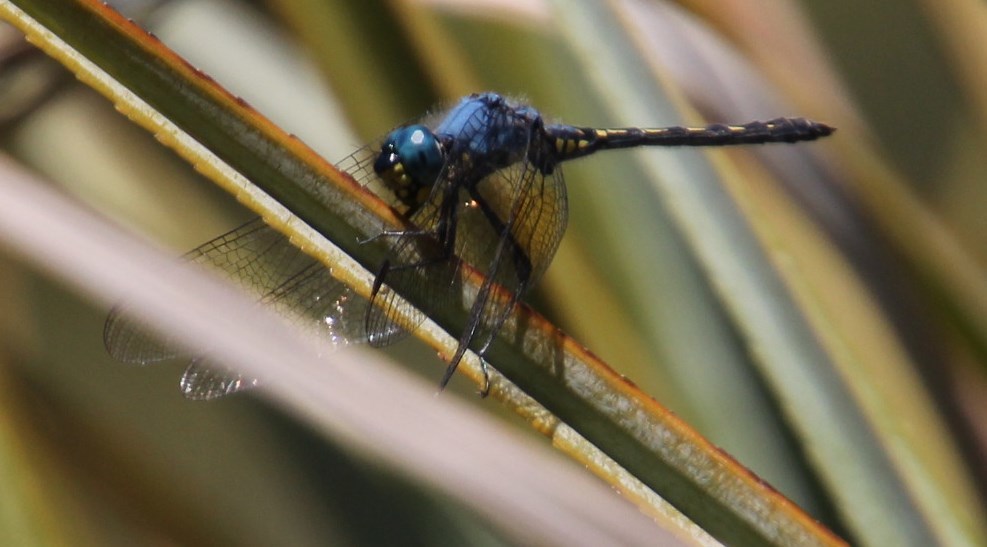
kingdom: Animalia
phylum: Arthropoda
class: Insecta
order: Odonata
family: Libellulidae
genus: Trithemis
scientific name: Trithemis stictica
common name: Jaunty dropwing
